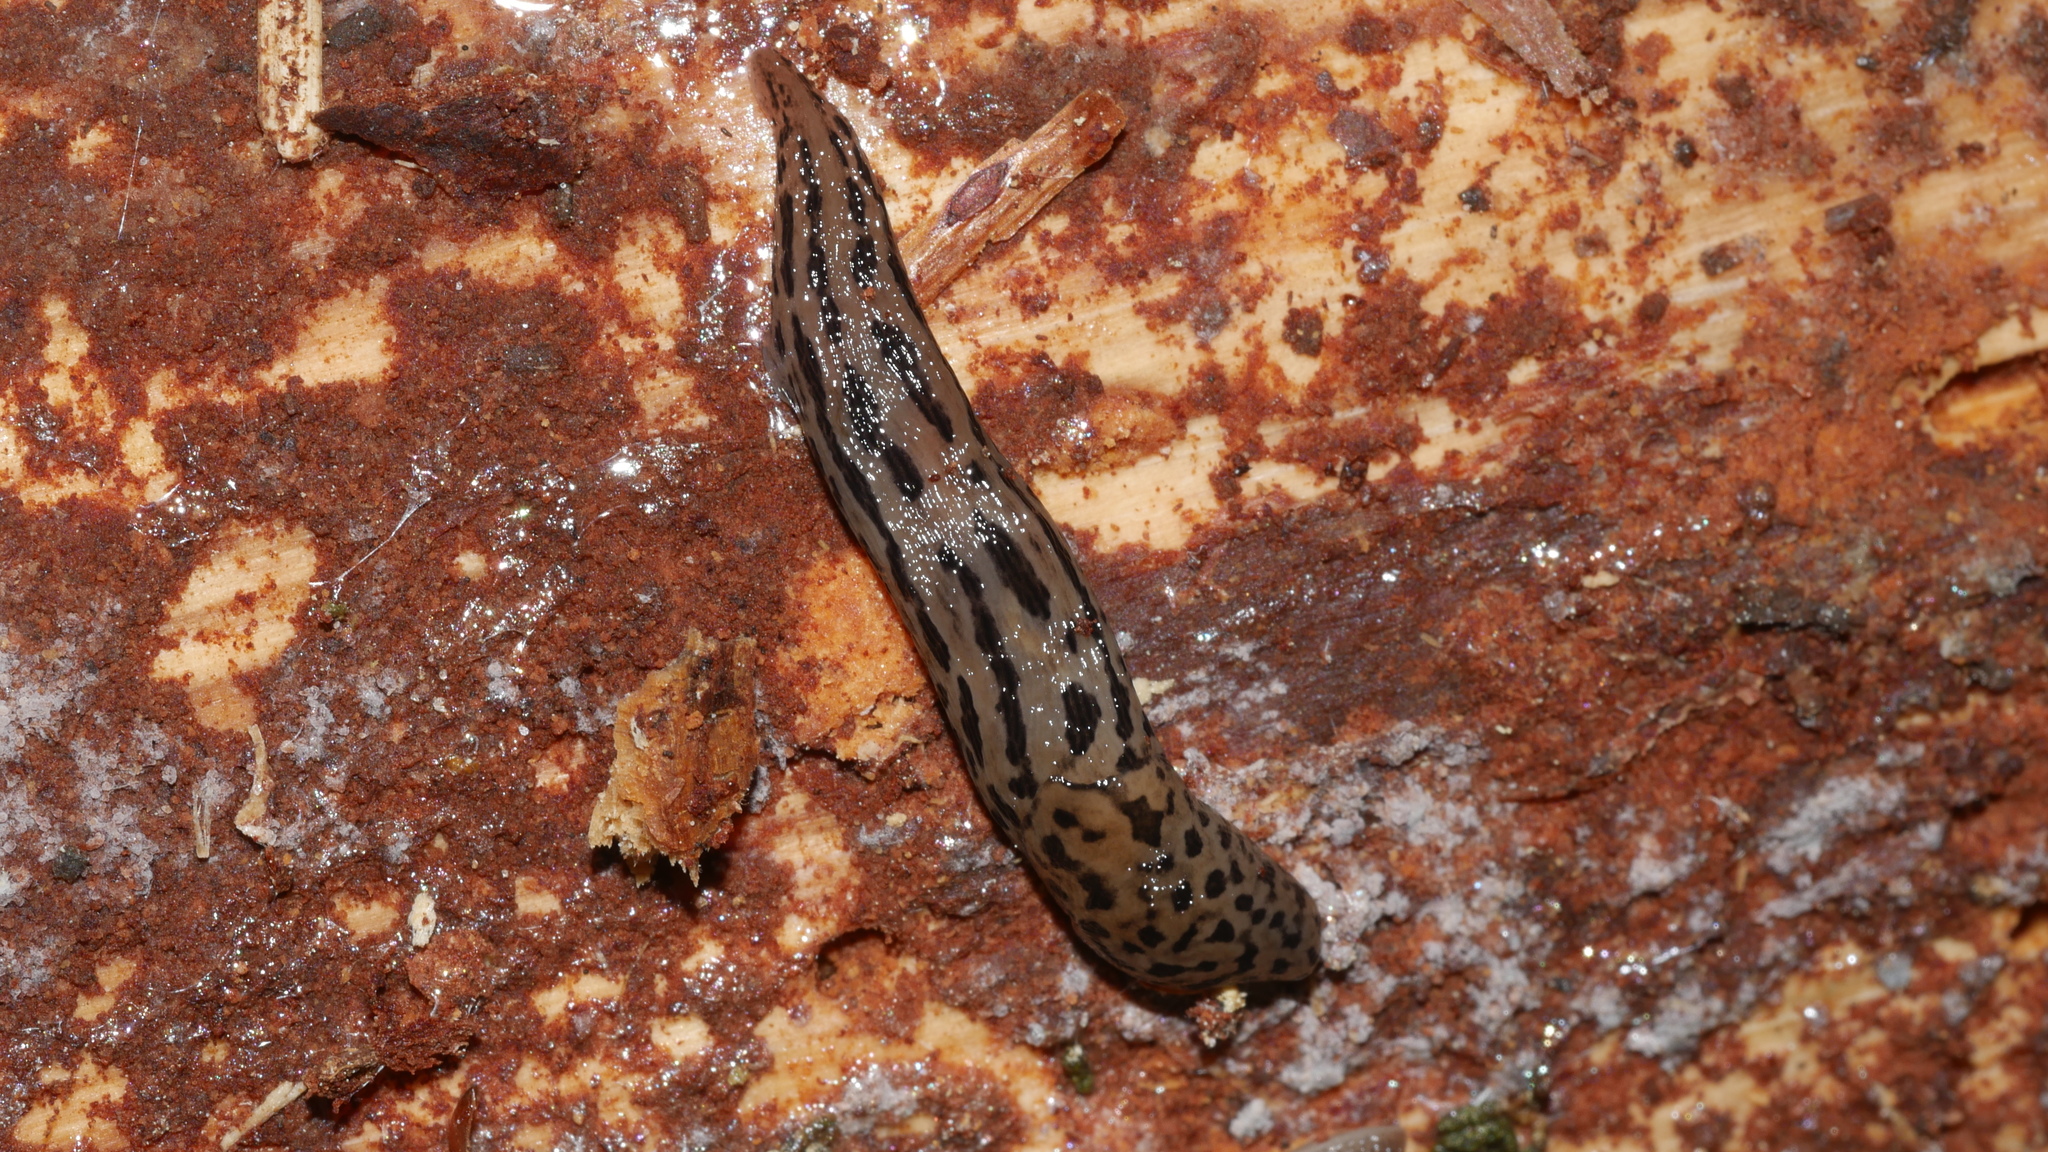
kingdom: Animalia
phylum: Mollusca
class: Gastropoda
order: Stylommatophora
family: Limacidae
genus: Limax
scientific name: Limax maximus
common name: Great grey slug
